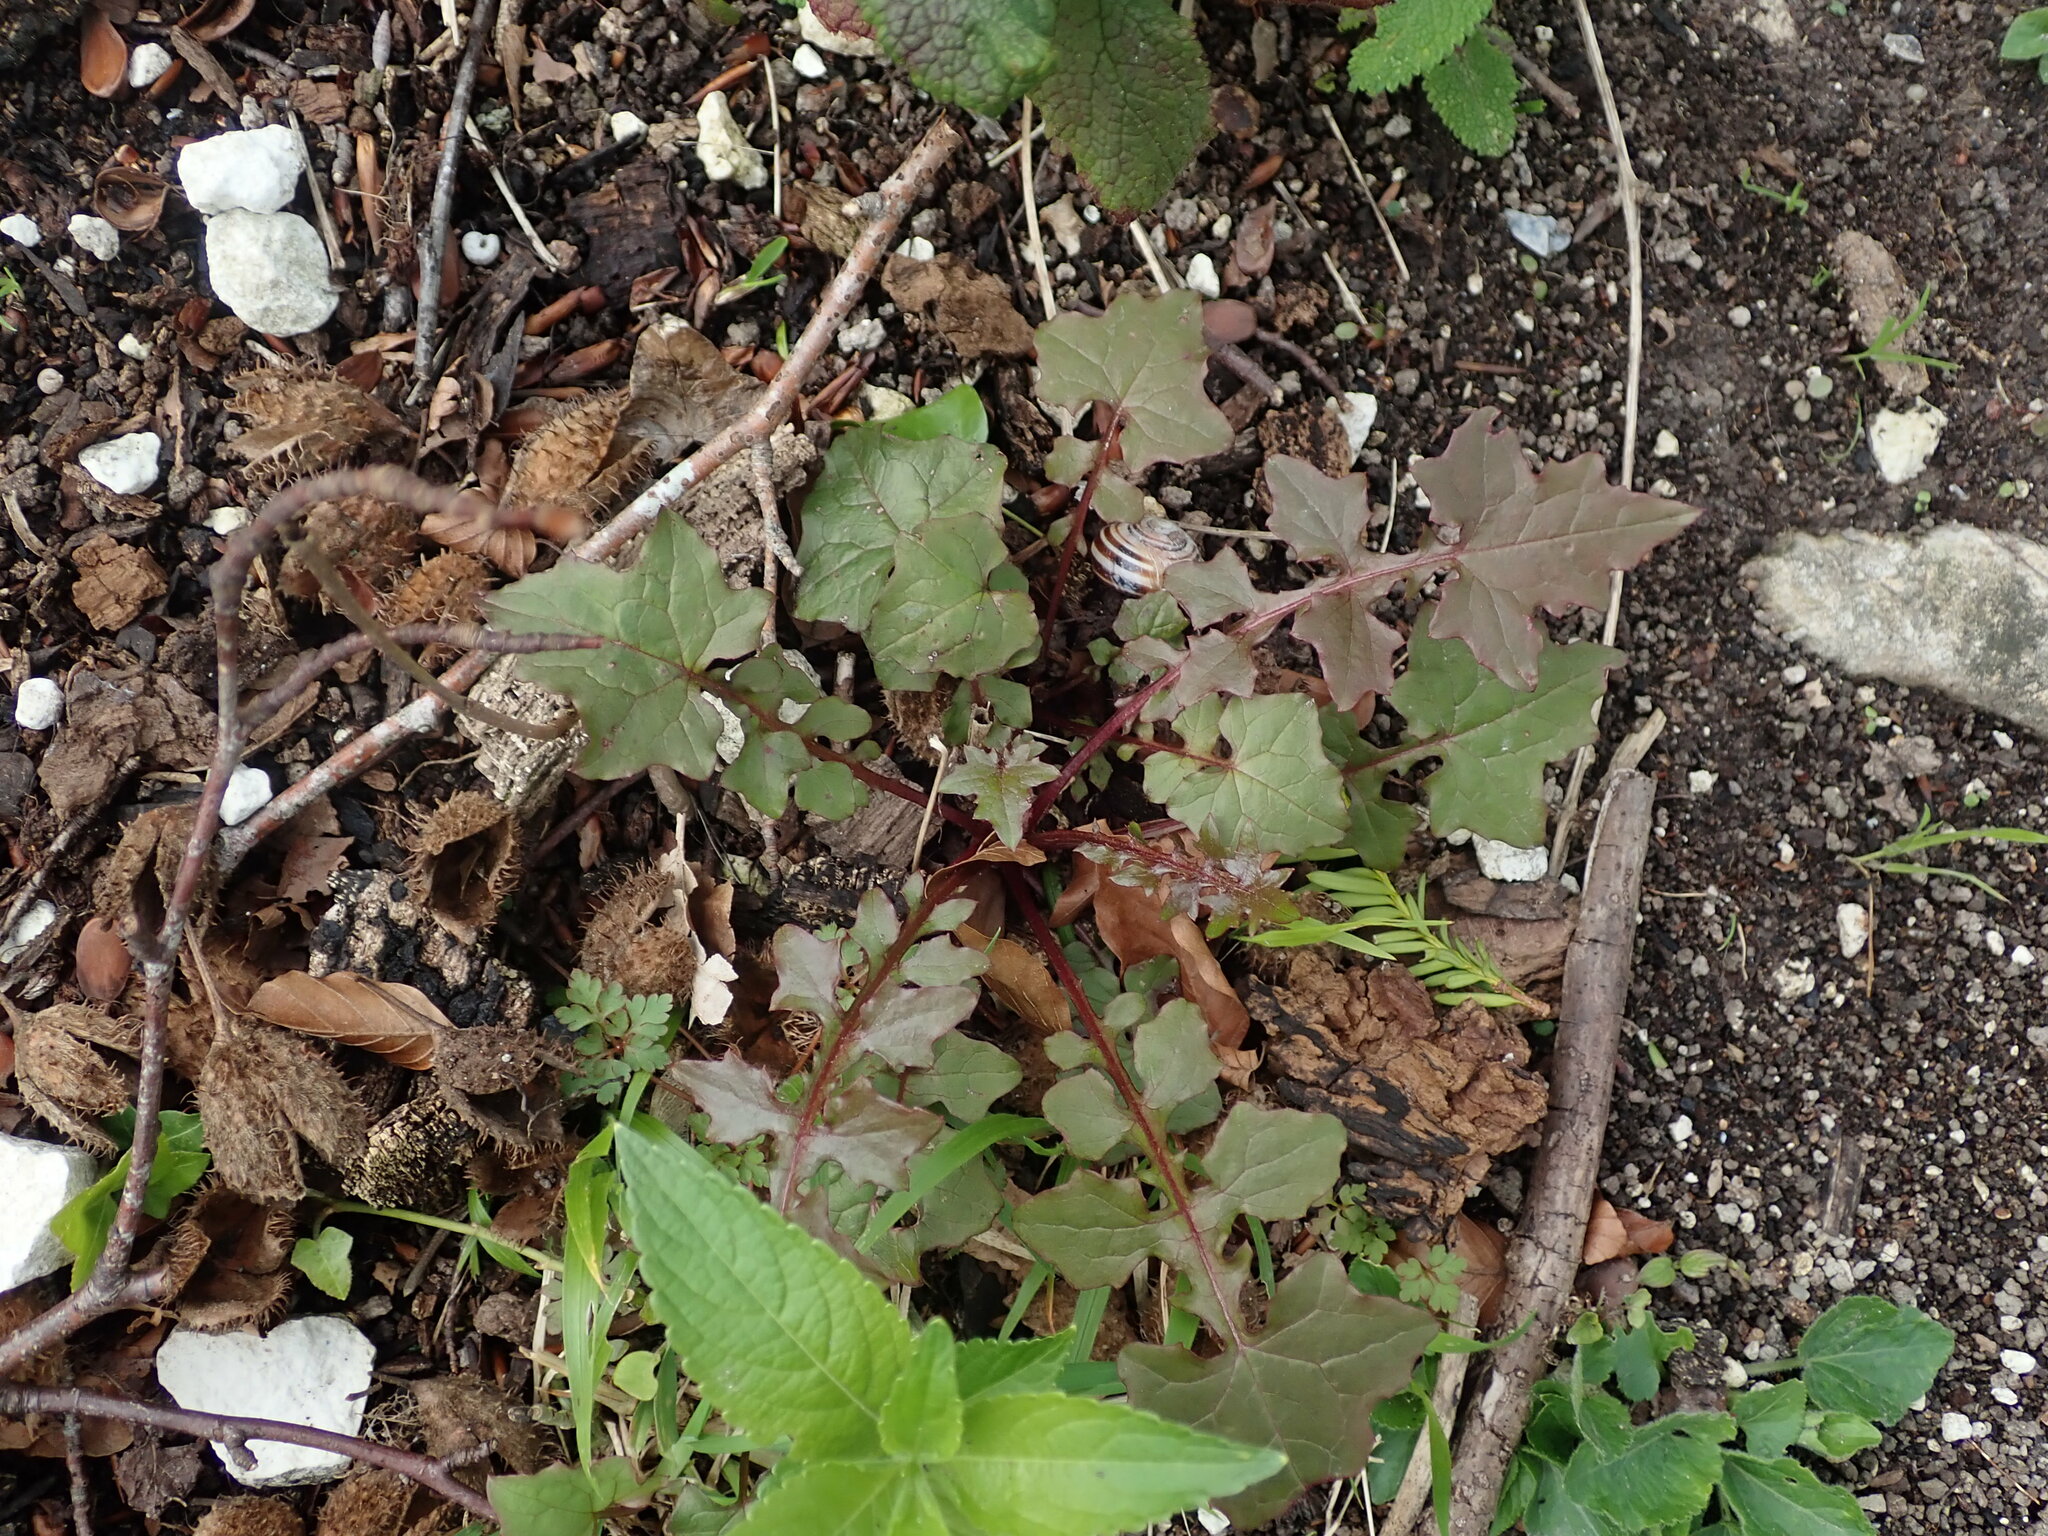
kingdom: Plantae
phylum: Tracheophyta
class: Magnoliopsida
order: Asterales
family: Asteraceae
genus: Mycelis
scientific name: Mycelis muralis
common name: Wall lettuce
